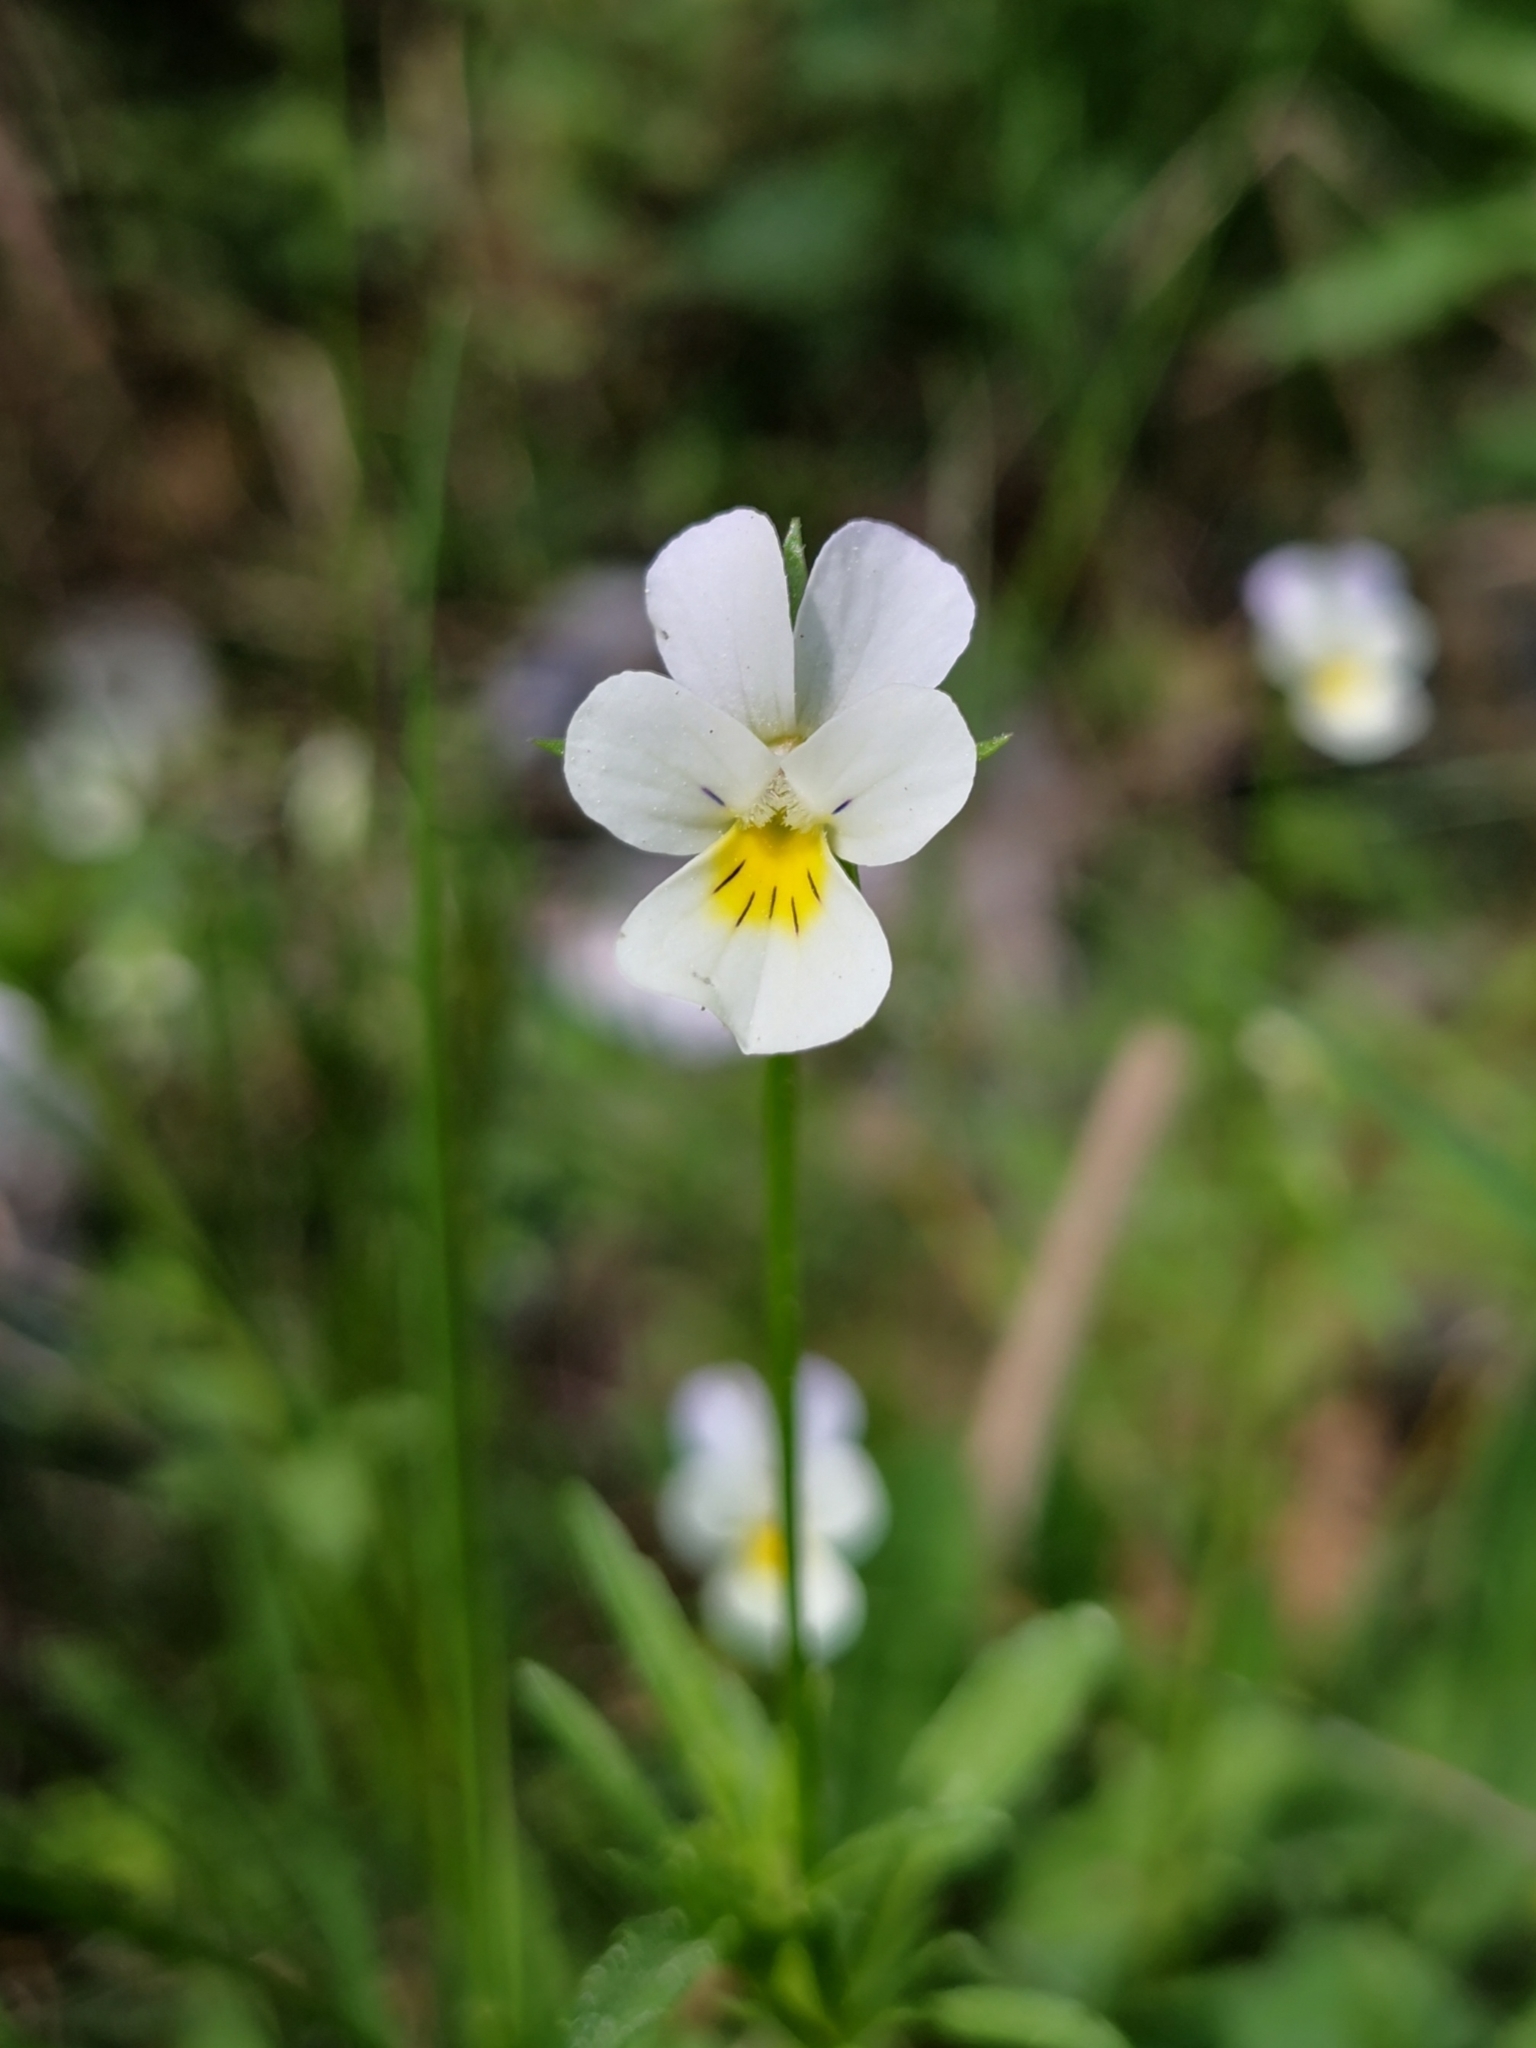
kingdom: Plantae
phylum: Tracheophyta
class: Magnoliopsida
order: Malpighiales
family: Violaceae
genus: Viola
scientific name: Viola arvensis
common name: Field pansy
